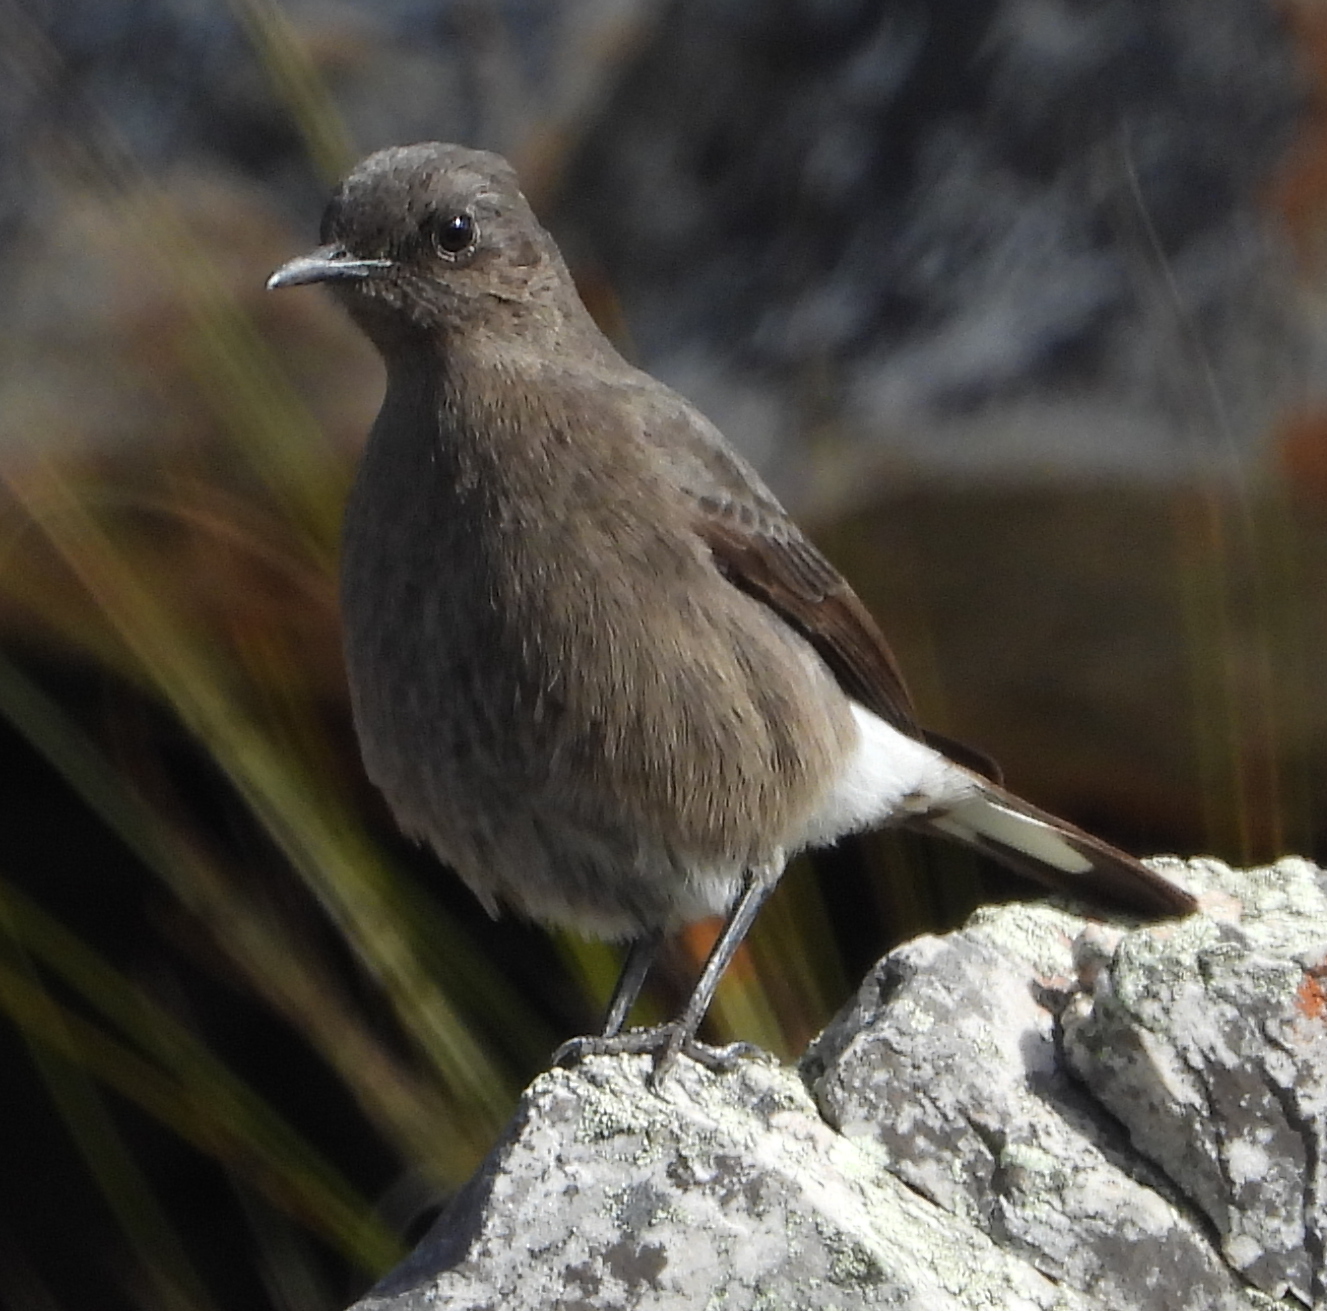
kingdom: Animalia
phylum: Chordata
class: Aves
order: Passeriformes
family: Muscicapidae
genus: Oenanthe
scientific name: Oenanthe monticola
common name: Mountain wheatear
